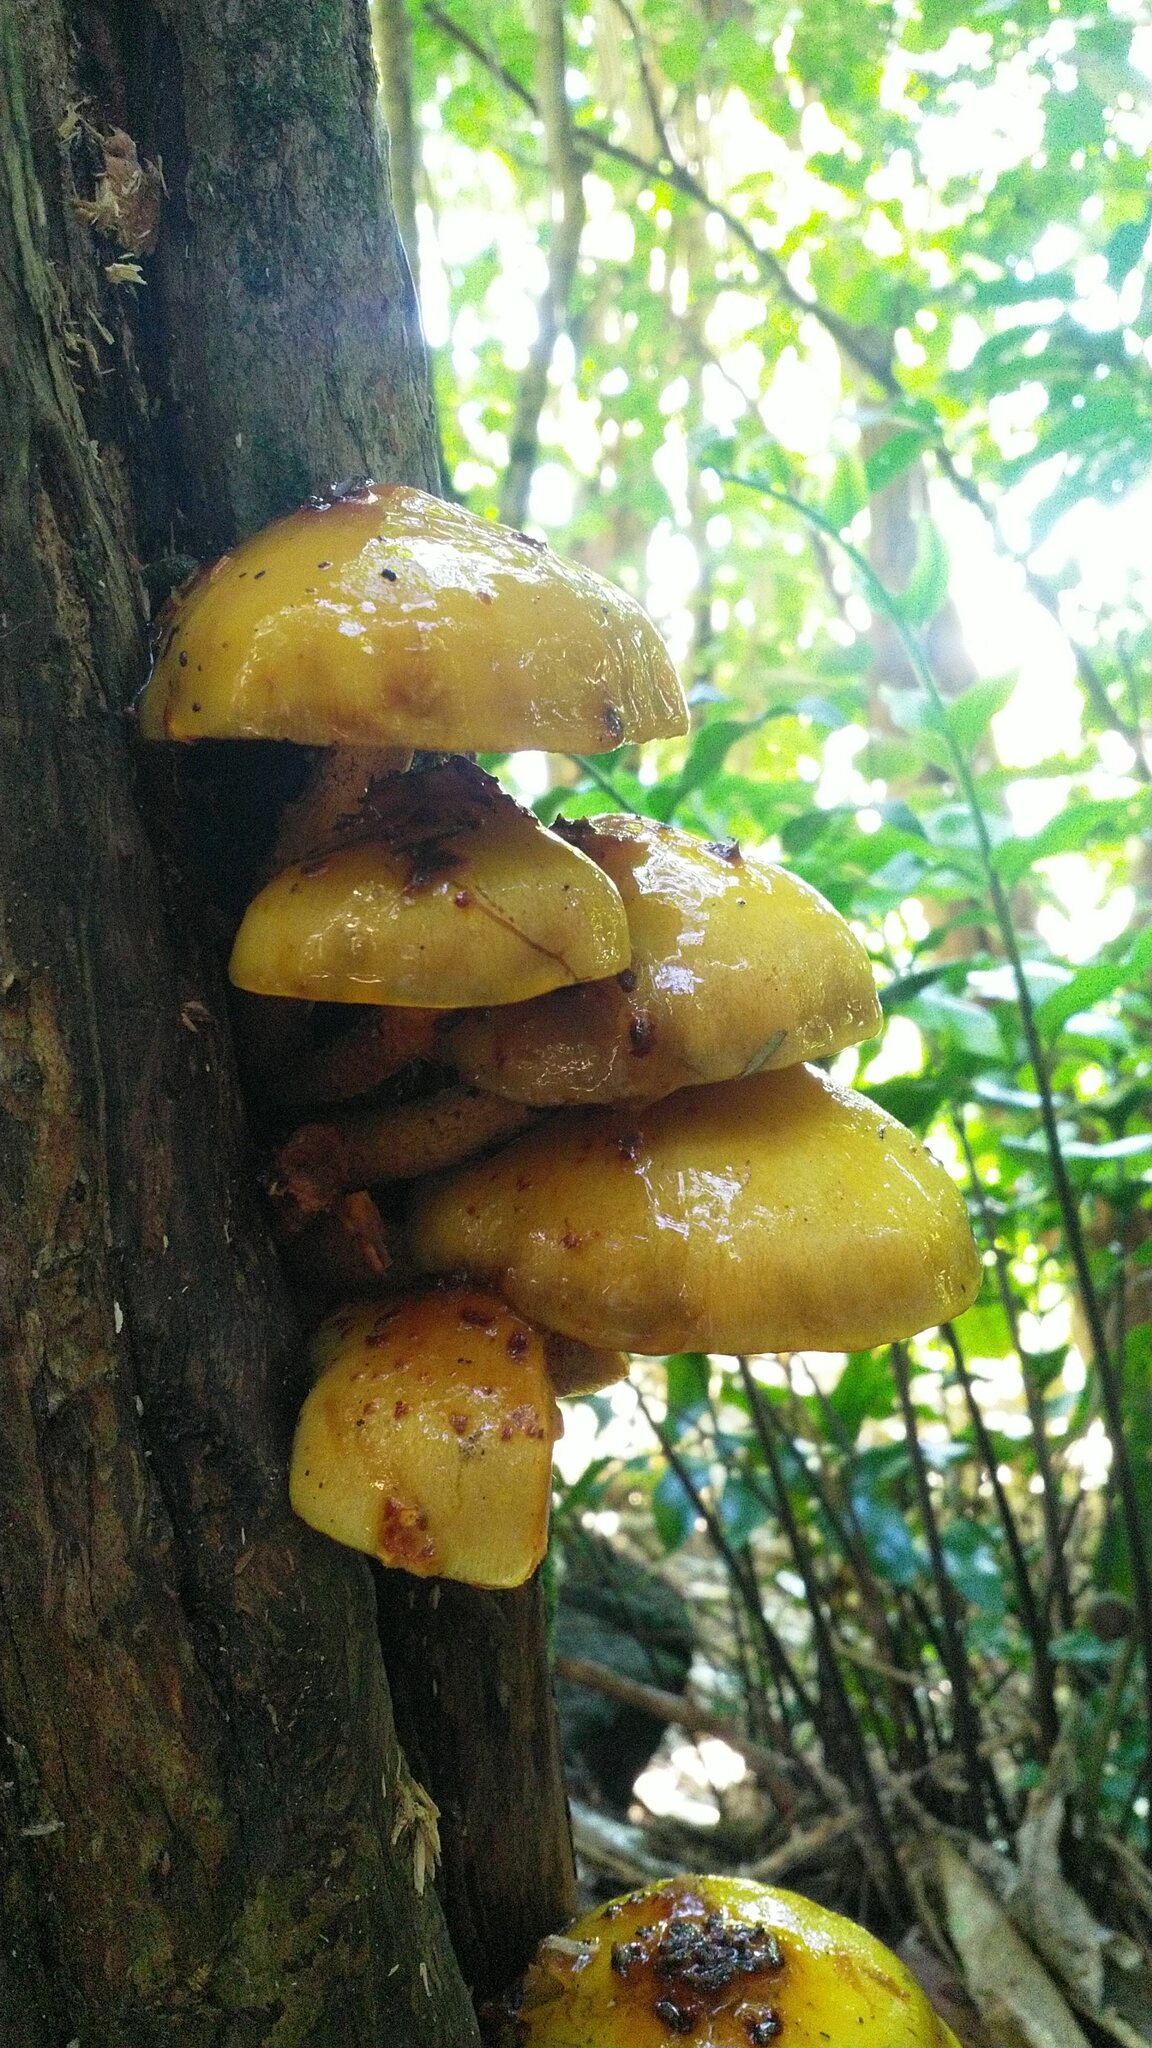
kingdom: Fungi
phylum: Basidiomycota
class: Agaricomycetes
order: Agaricales
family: Strophariaceae
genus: Pholiota
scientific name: Pholiota glutinosa
